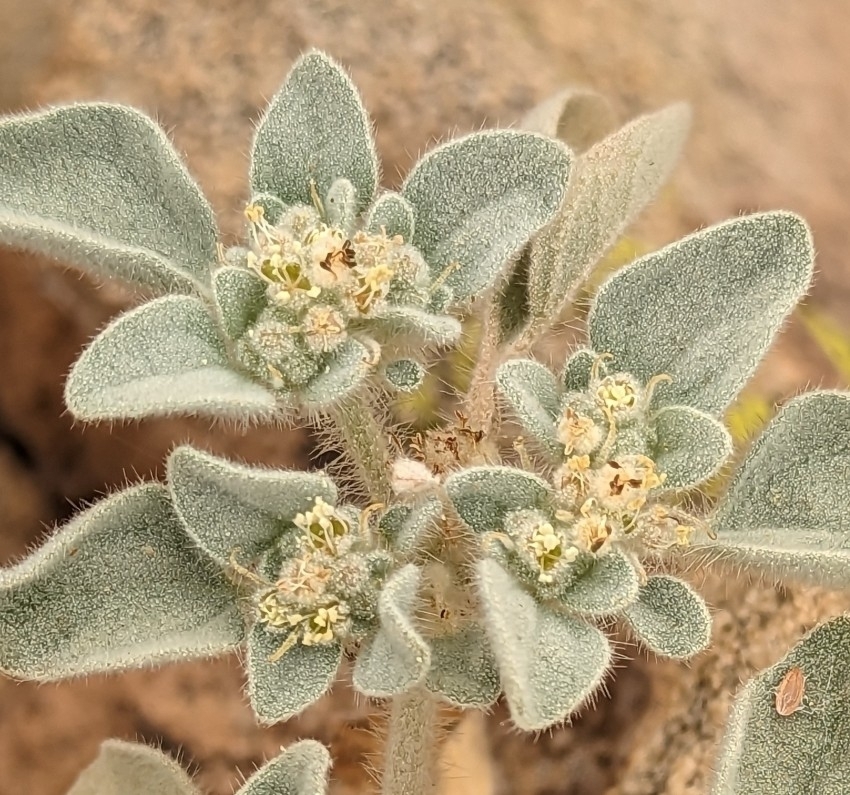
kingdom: Plantae
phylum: Tracheophyta
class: Magnoliopsida
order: Malpighiales
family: Euphorbiaceae
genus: Croton
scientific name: Croton setiger
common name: Dove weed
